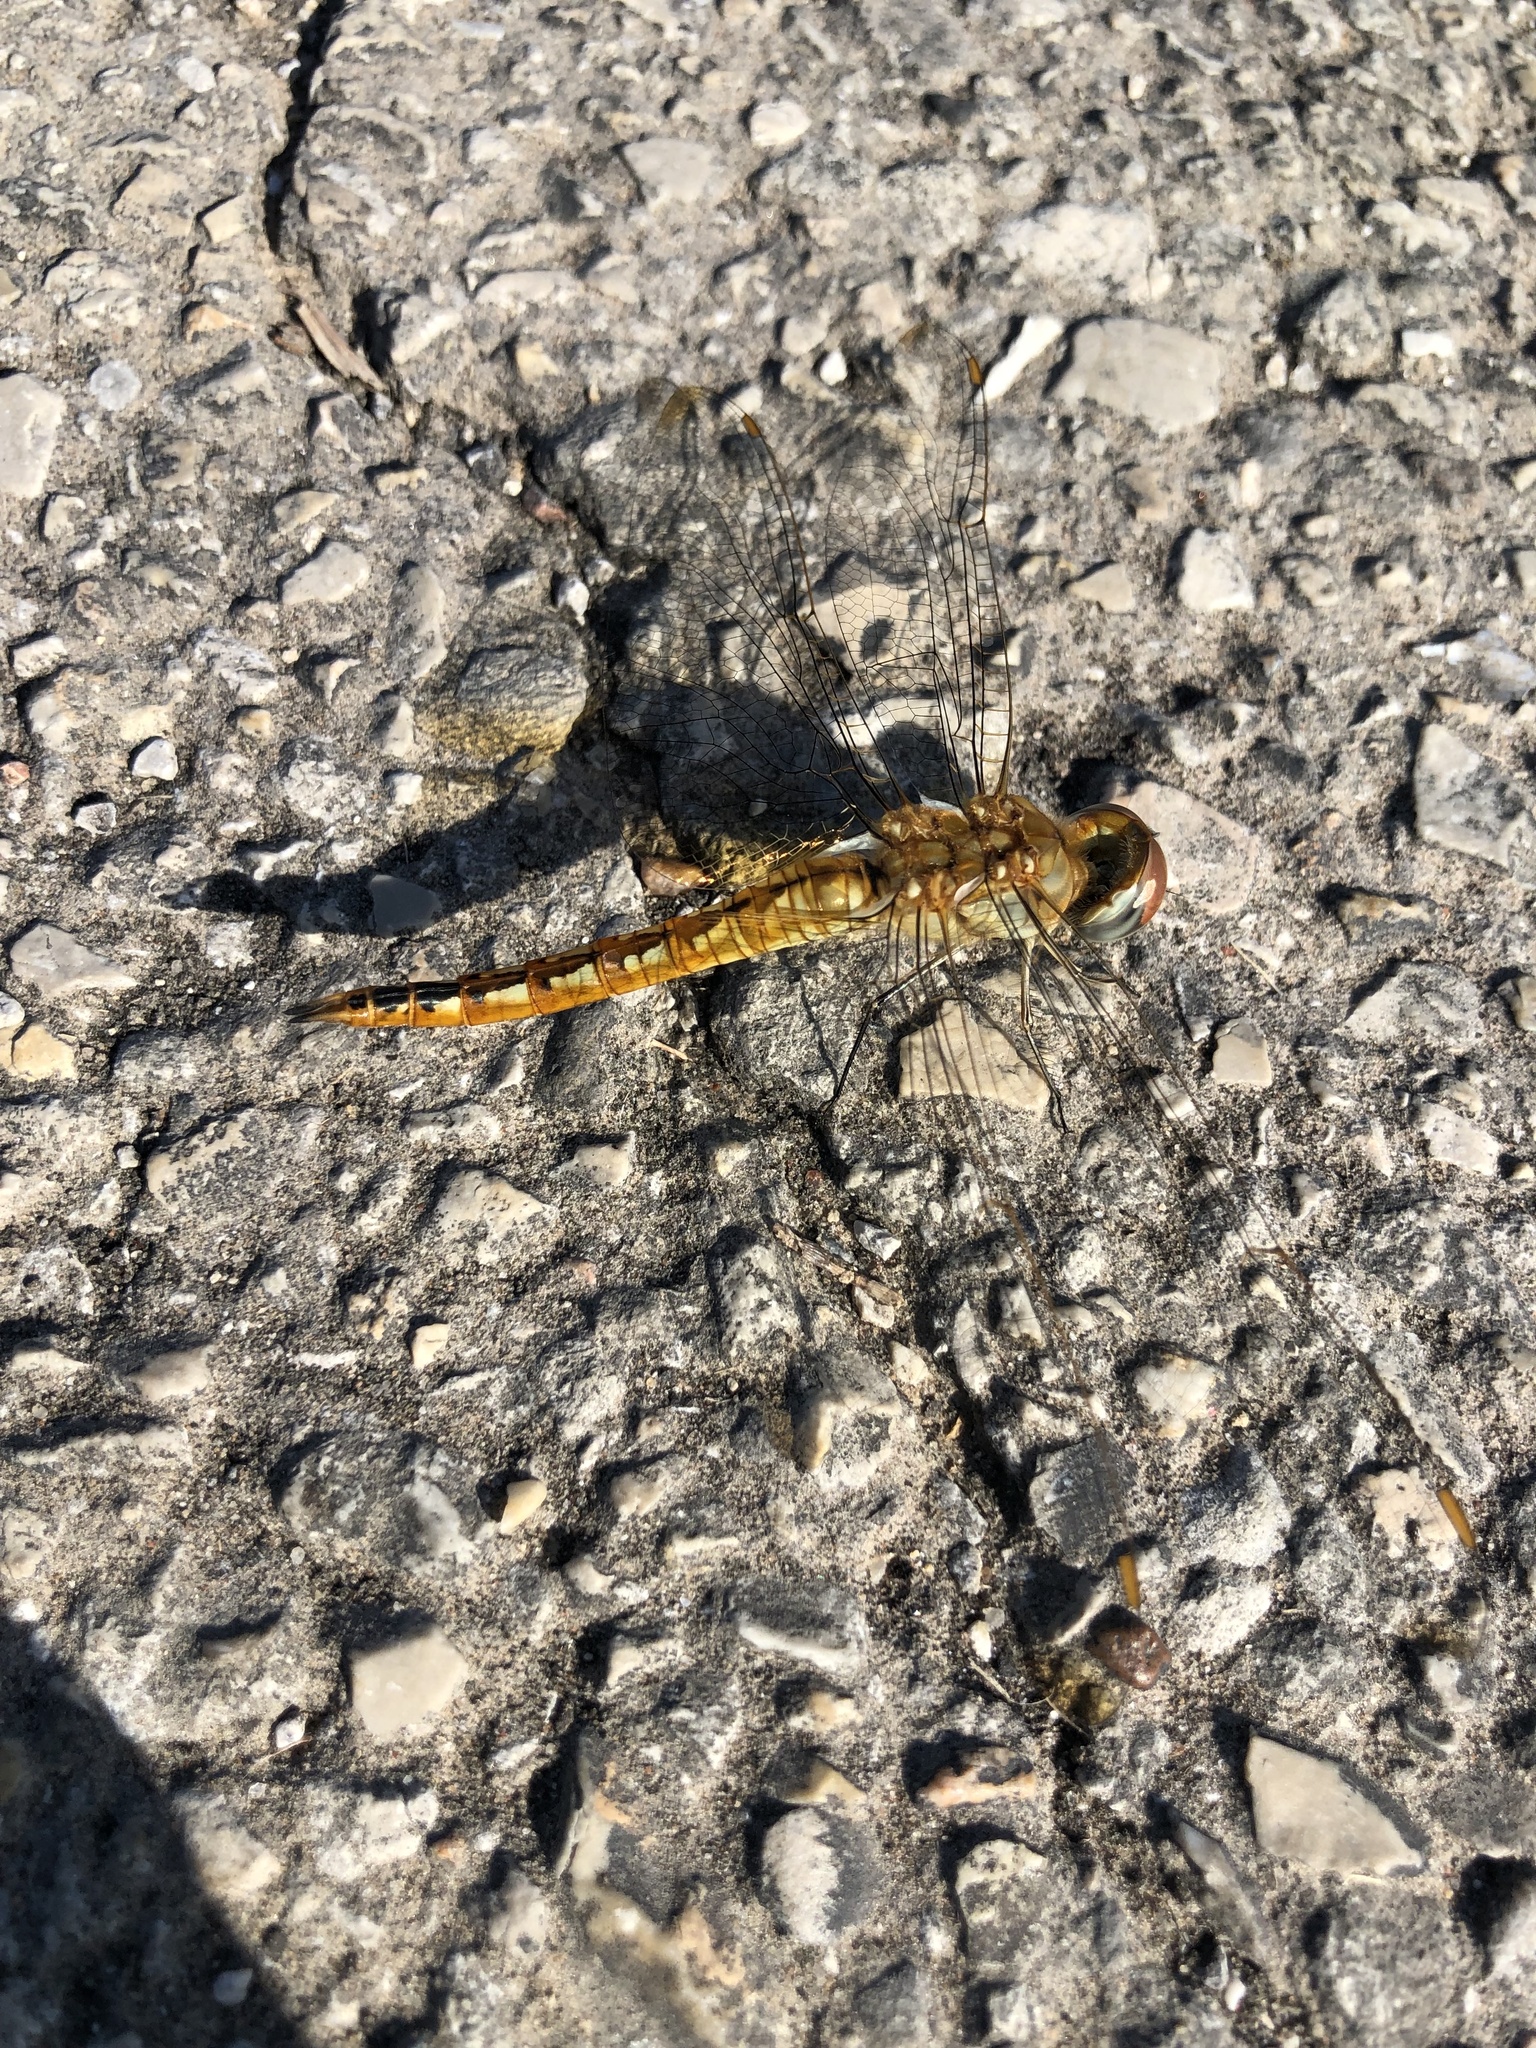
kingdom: Animalia
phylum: Arthropoda
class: Insecta
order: Odonata
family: Libellulidae
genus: Pantala
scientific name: Pantala flavescens
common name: Wandering glider
